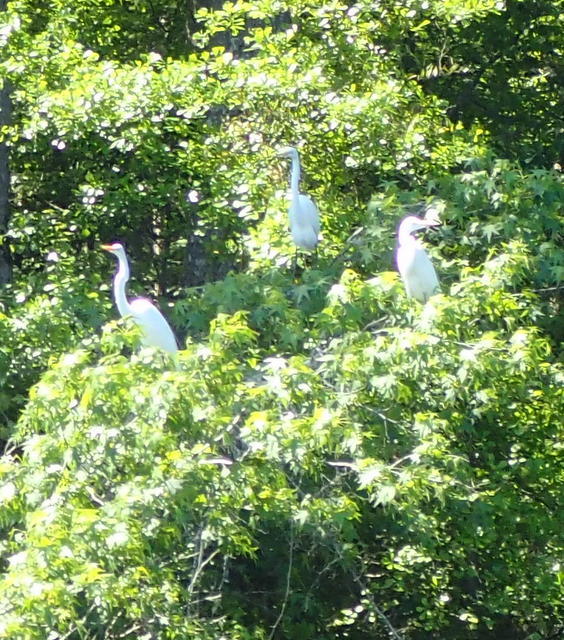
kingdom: Animalia
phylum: Chordata
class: Aves
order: Pelecaniformes
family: Ardeidae
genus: Ardea
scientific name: Ardea alba
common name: Great egret
